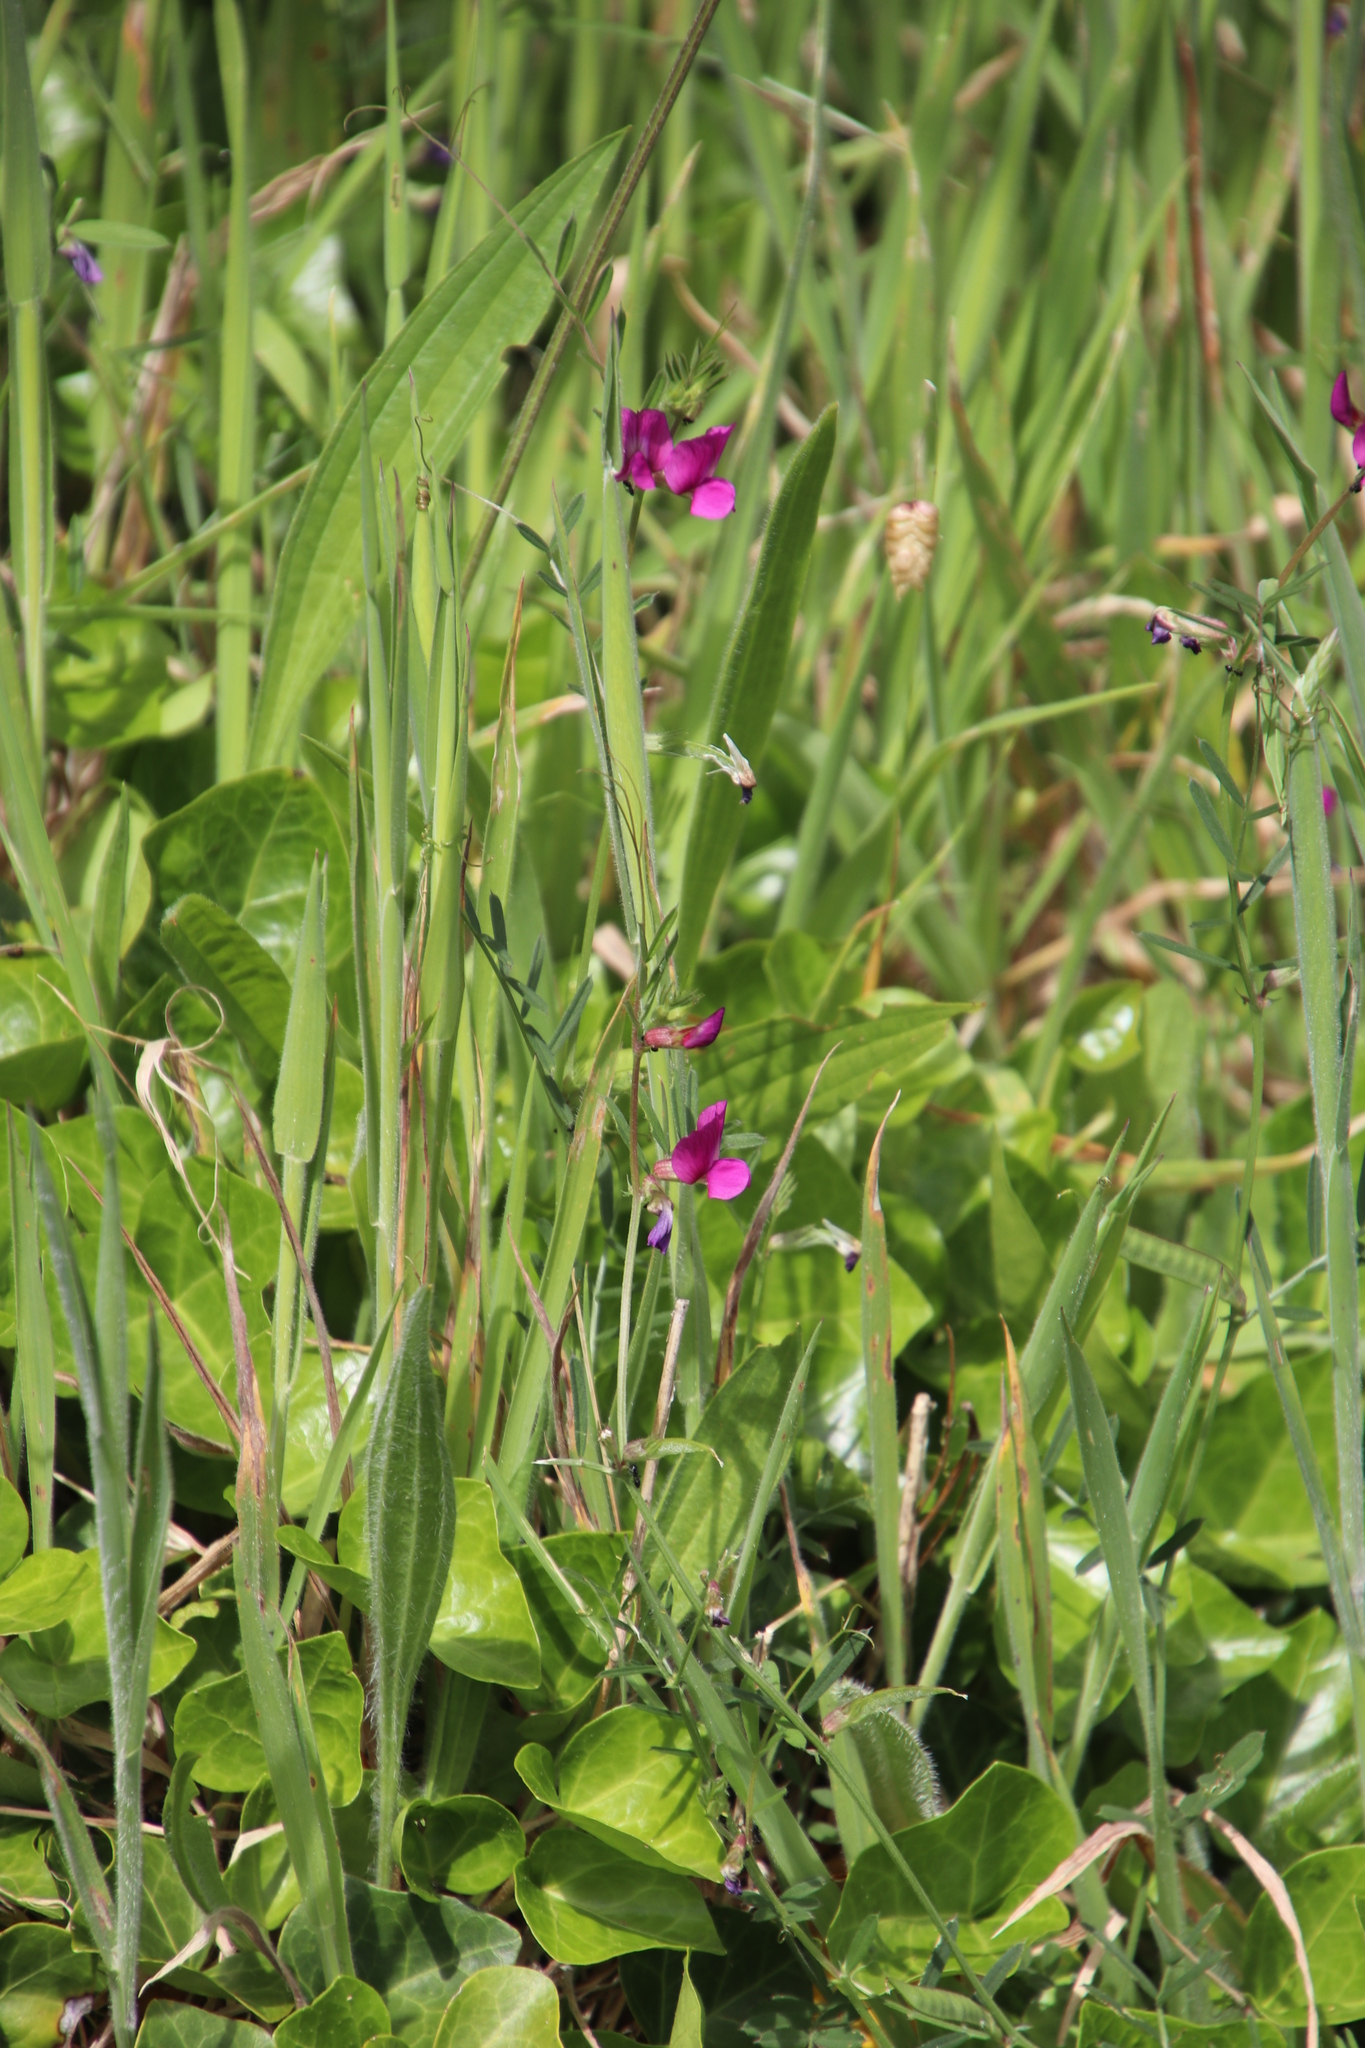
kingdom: Plantae
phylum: Tracheophyta
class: Magnoliopsida
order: Fabales
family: Fabaceae
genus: Vicia
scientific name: Vicia sativa
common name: Garden vetch
